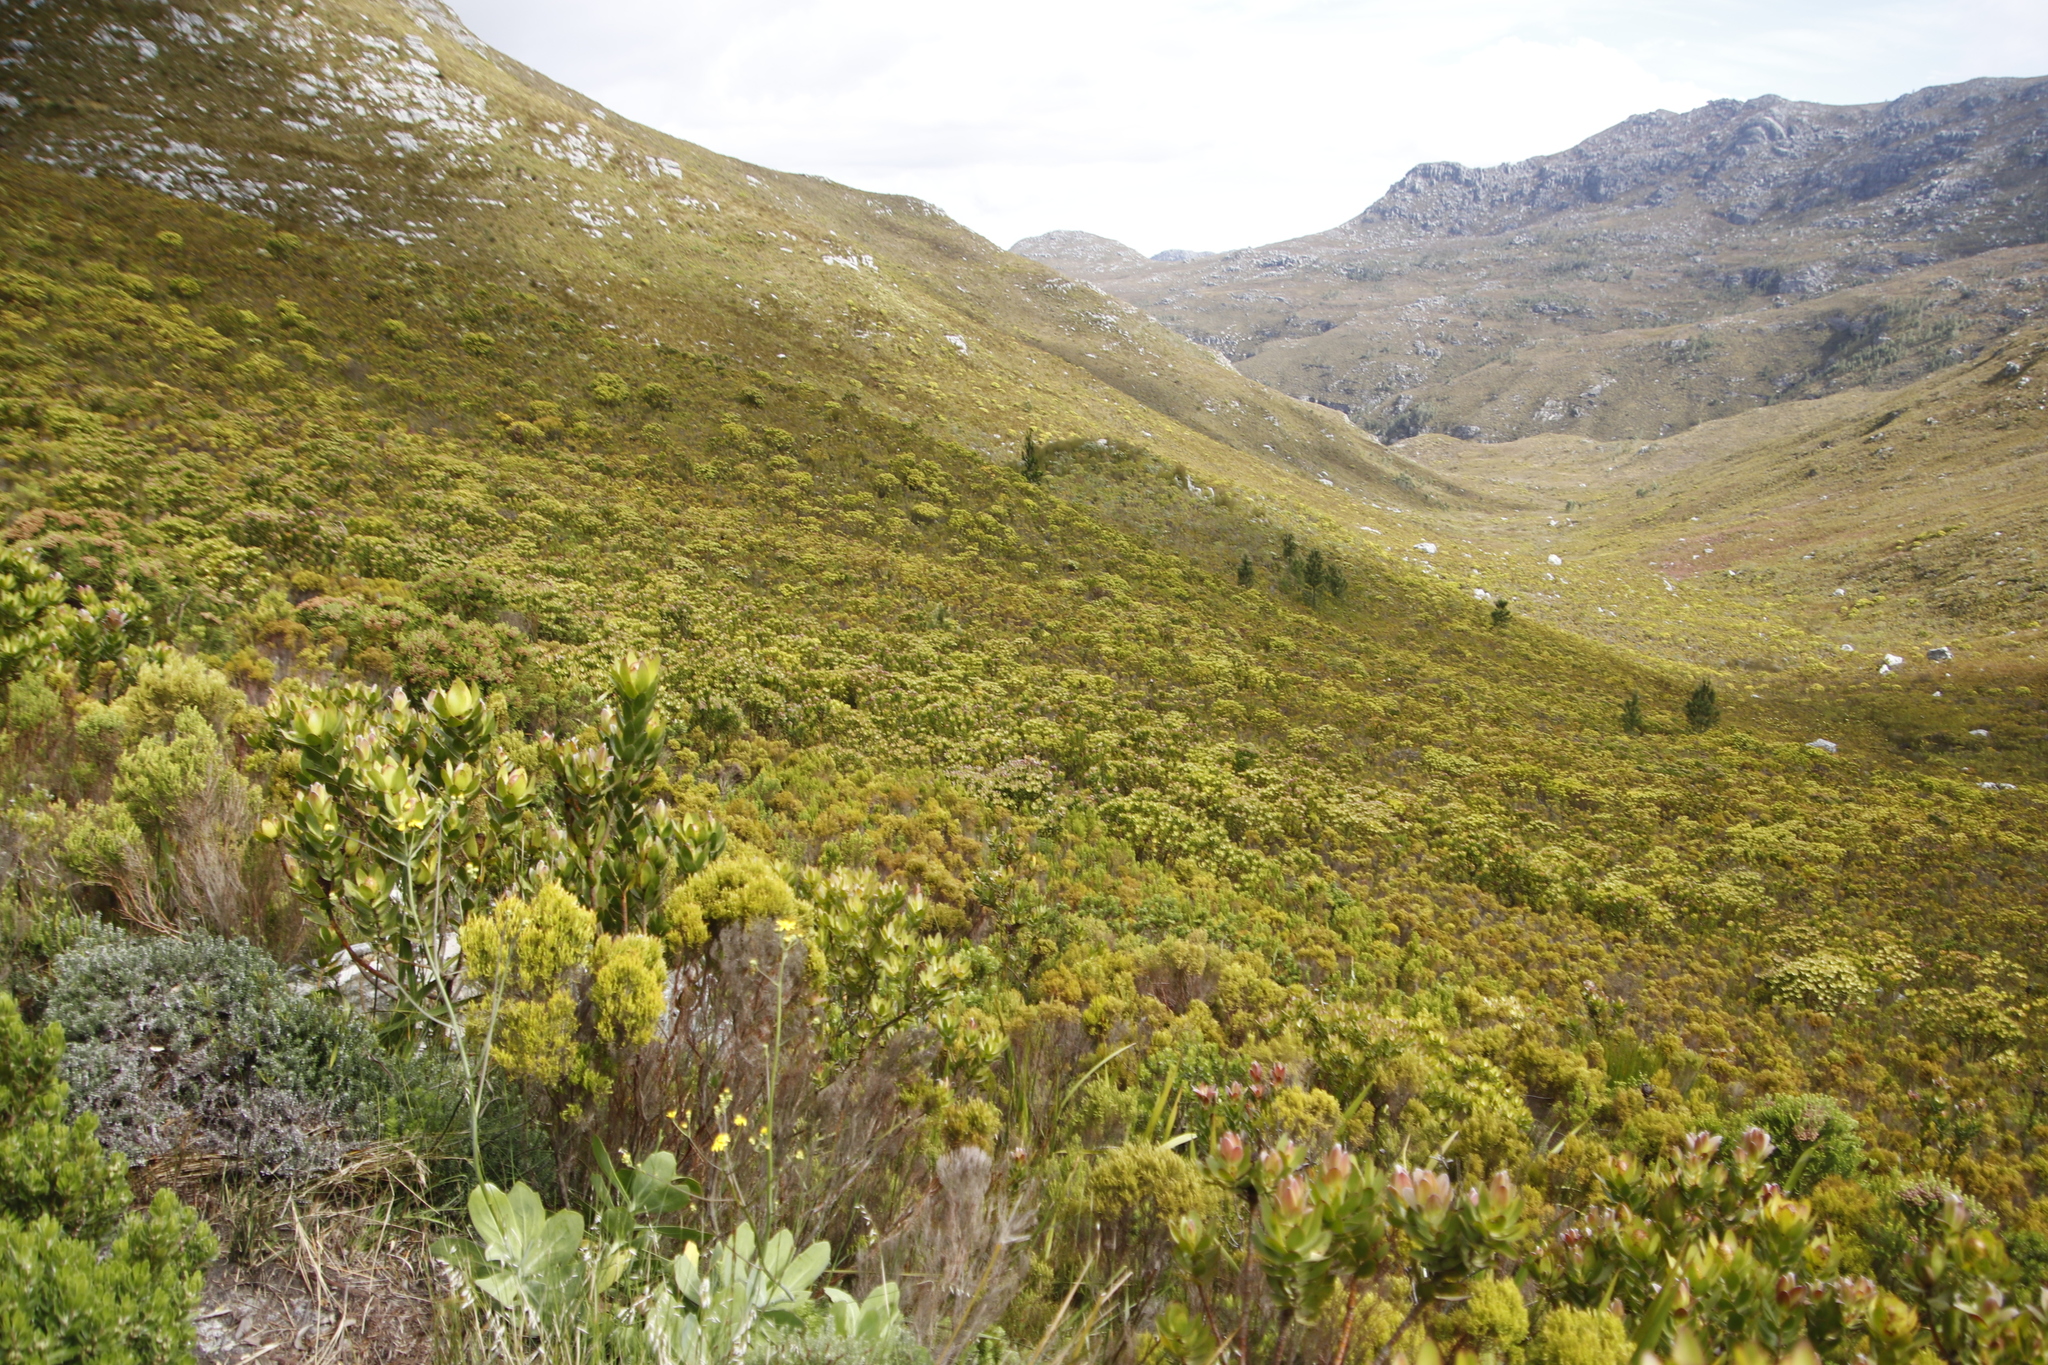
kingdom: Plantae
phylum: Tracheophyta
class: Pinopsida
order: Pinales
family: Pinaceae
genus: Pinus
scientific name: Pinus pinaster
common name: Maritime pine
